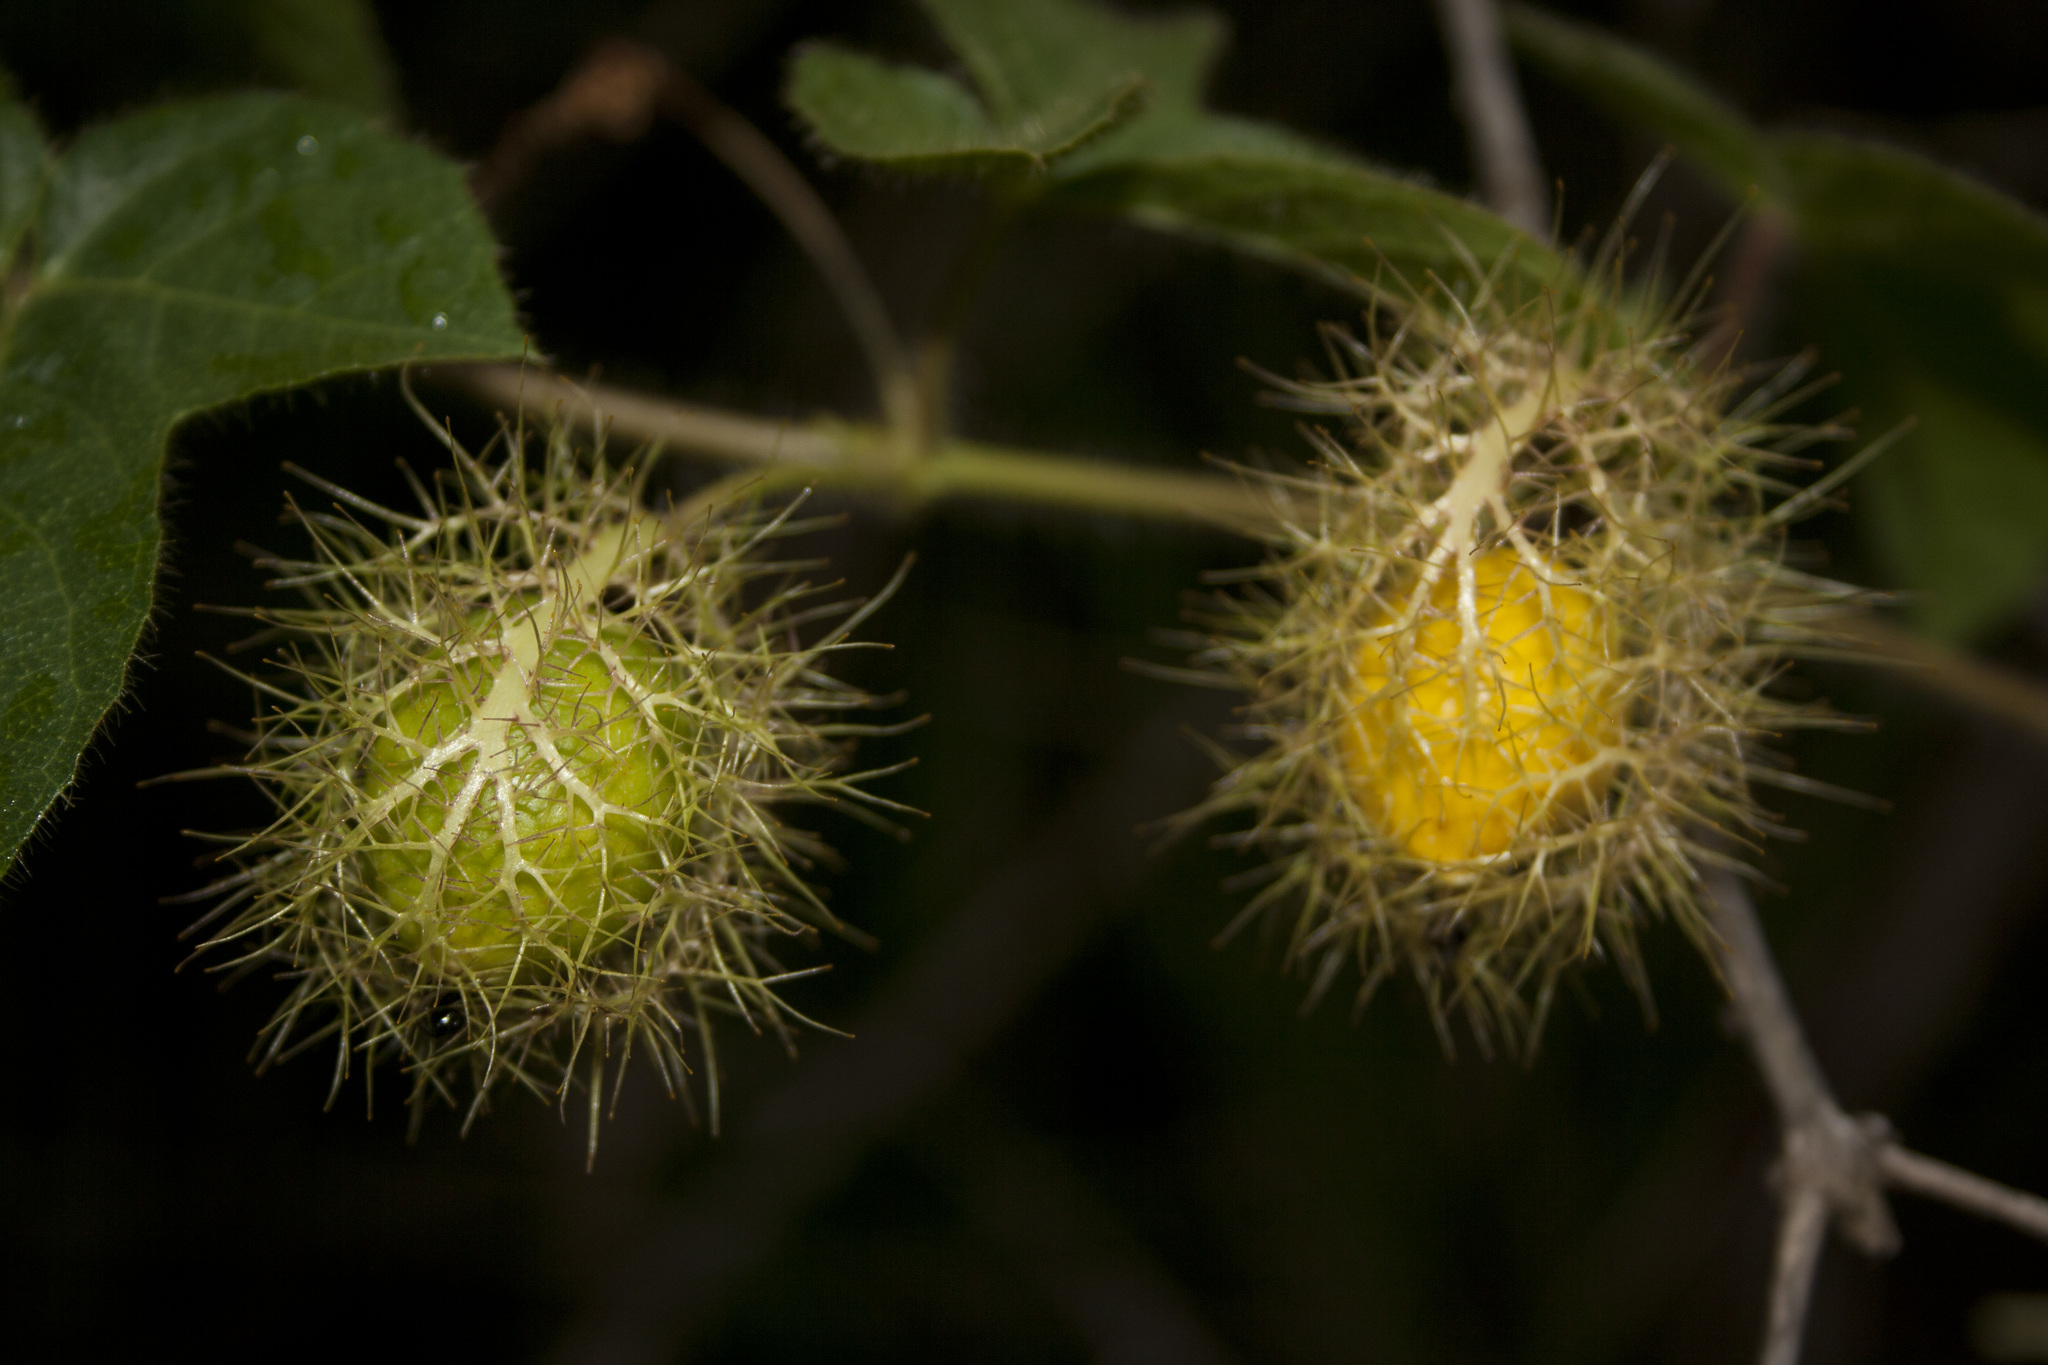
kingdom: Plantae
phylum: Tracheophyta
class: Magnoliopsida
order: Malpighiales
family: Passifloraceae
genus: Passiflora
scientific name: Passiflora foetida
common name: Fetid passionflower
